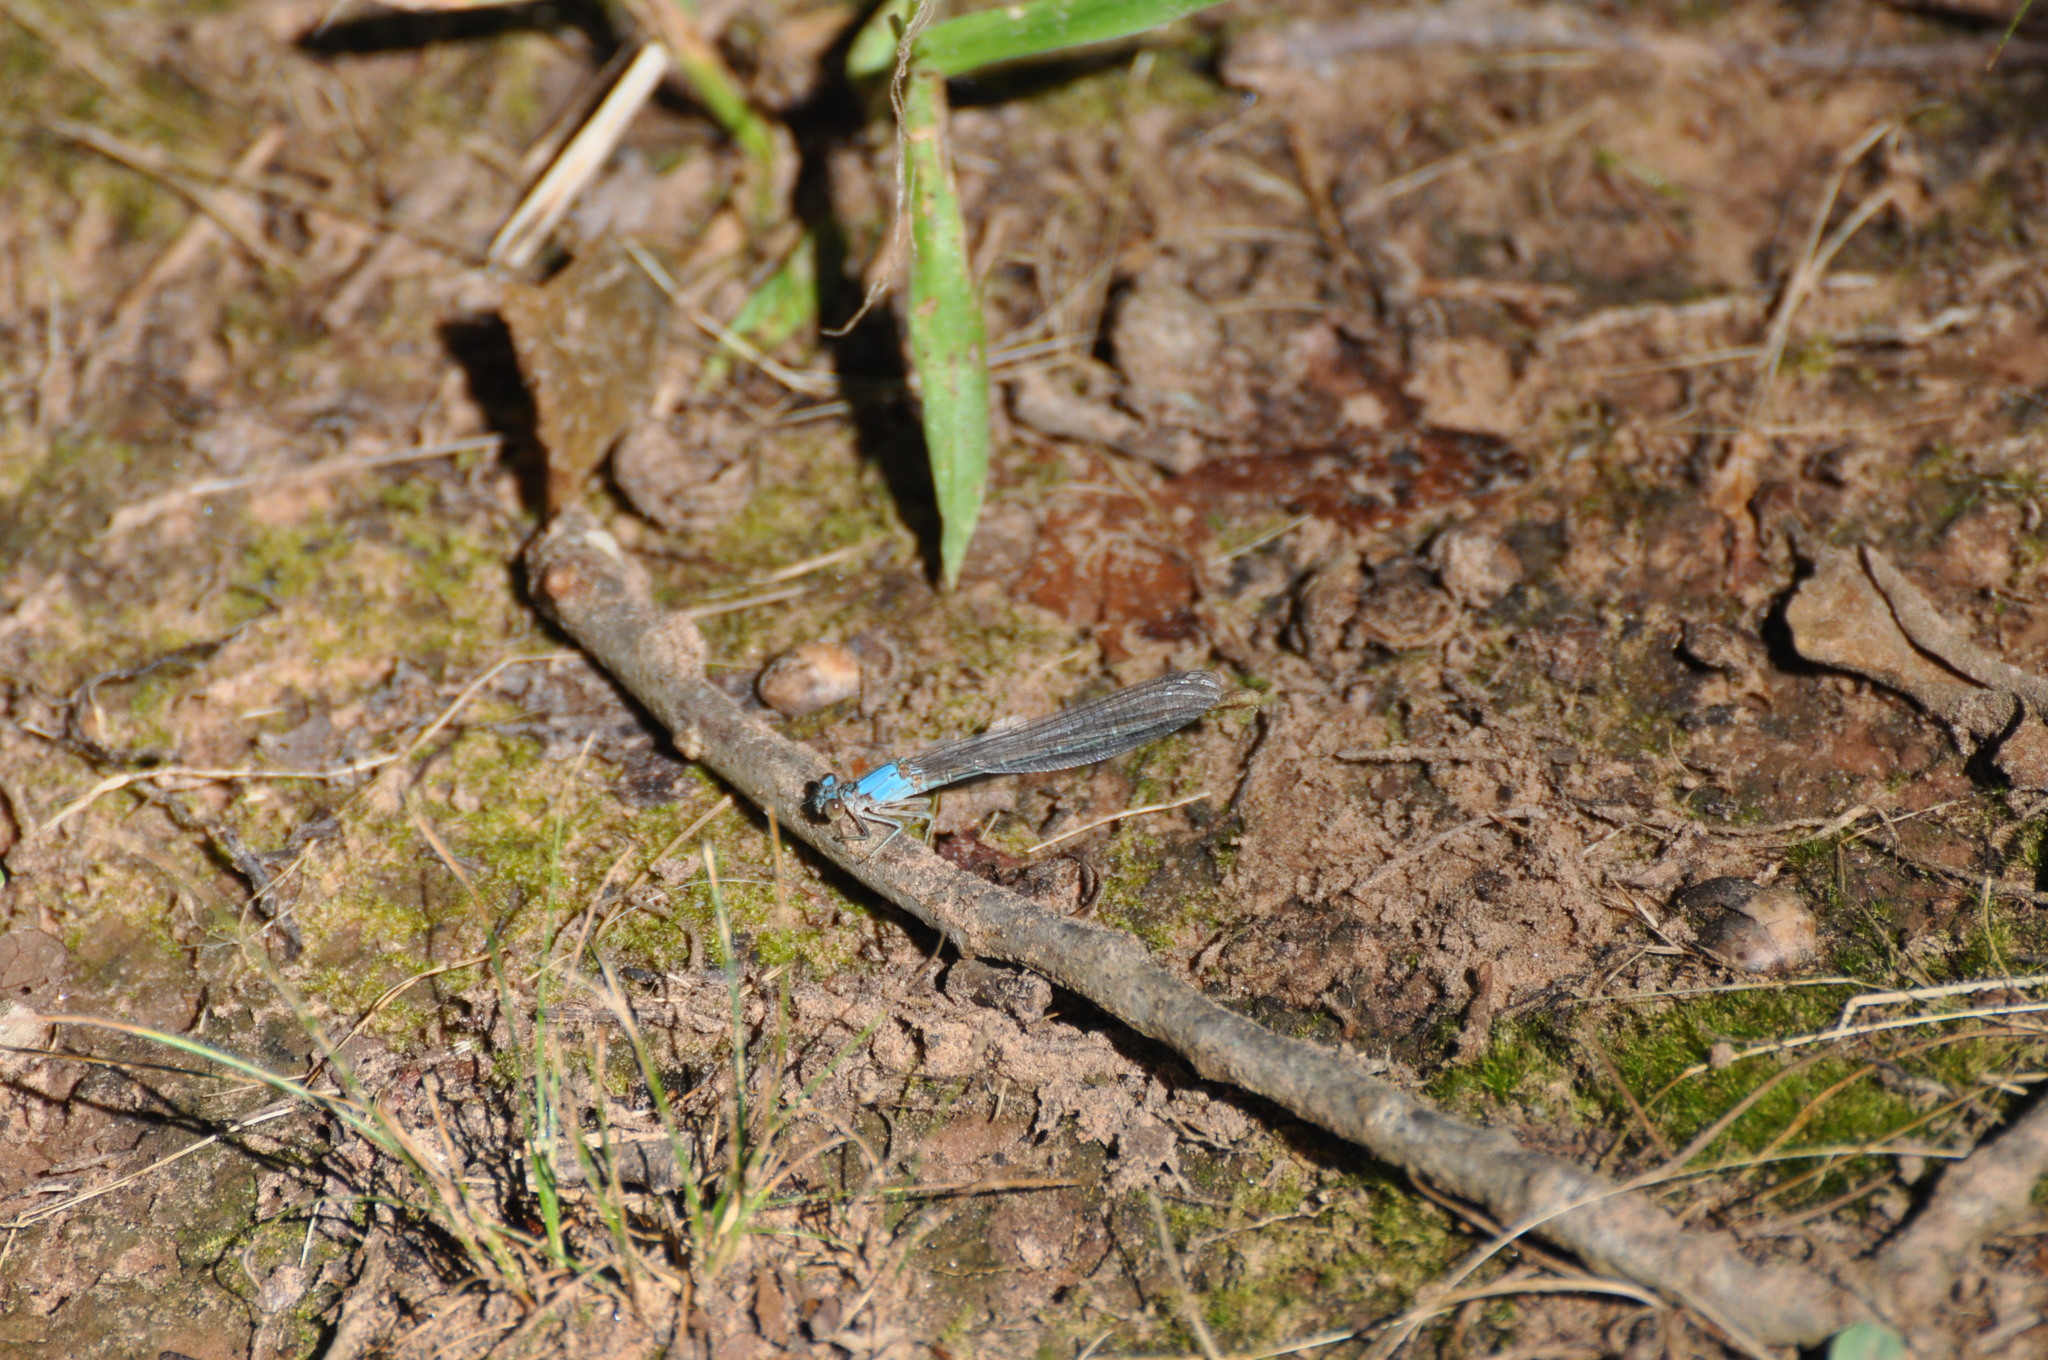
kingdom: Animalia
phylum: Arthropoda
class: Insecta
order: Odonata
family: Coenagrionidae
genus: Argia
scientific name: Argia moesta
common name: Powdered dancer
